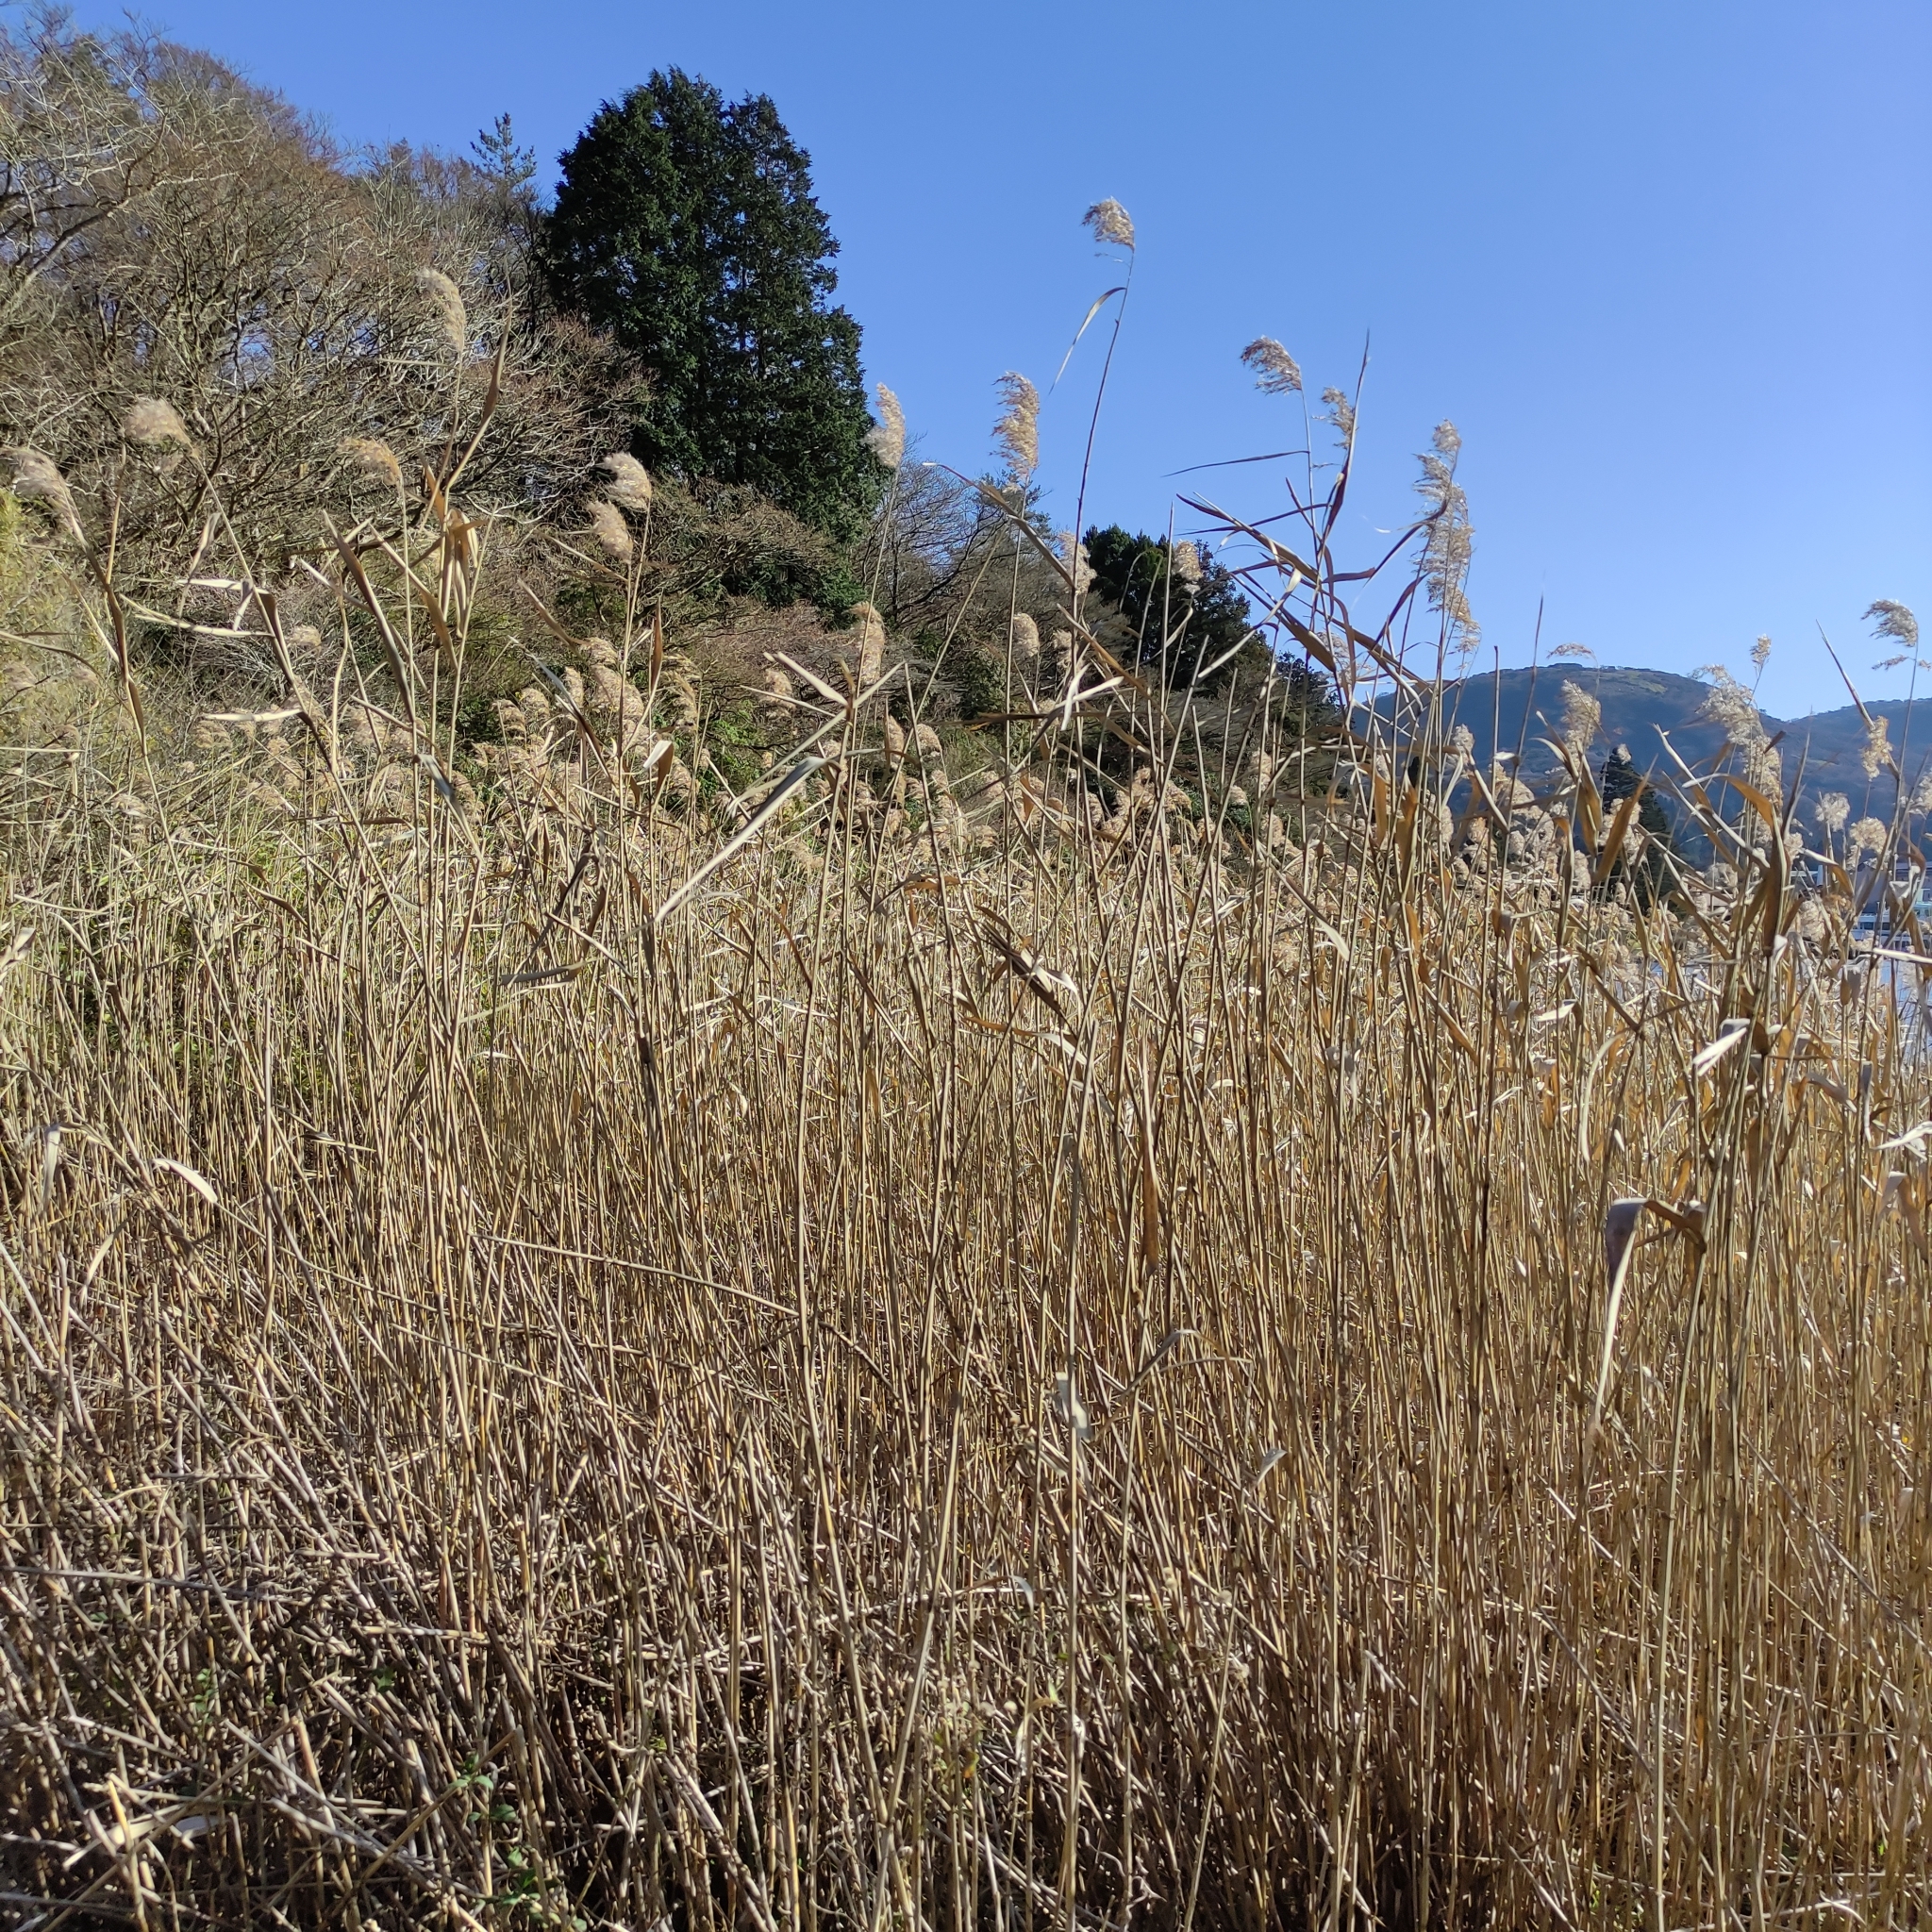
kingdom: Plantae
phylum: Tracheophyta
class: Liliopsida
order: Poales
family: Poaceae
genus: Phragmites
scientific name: Phragmites australis
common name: Common reed
